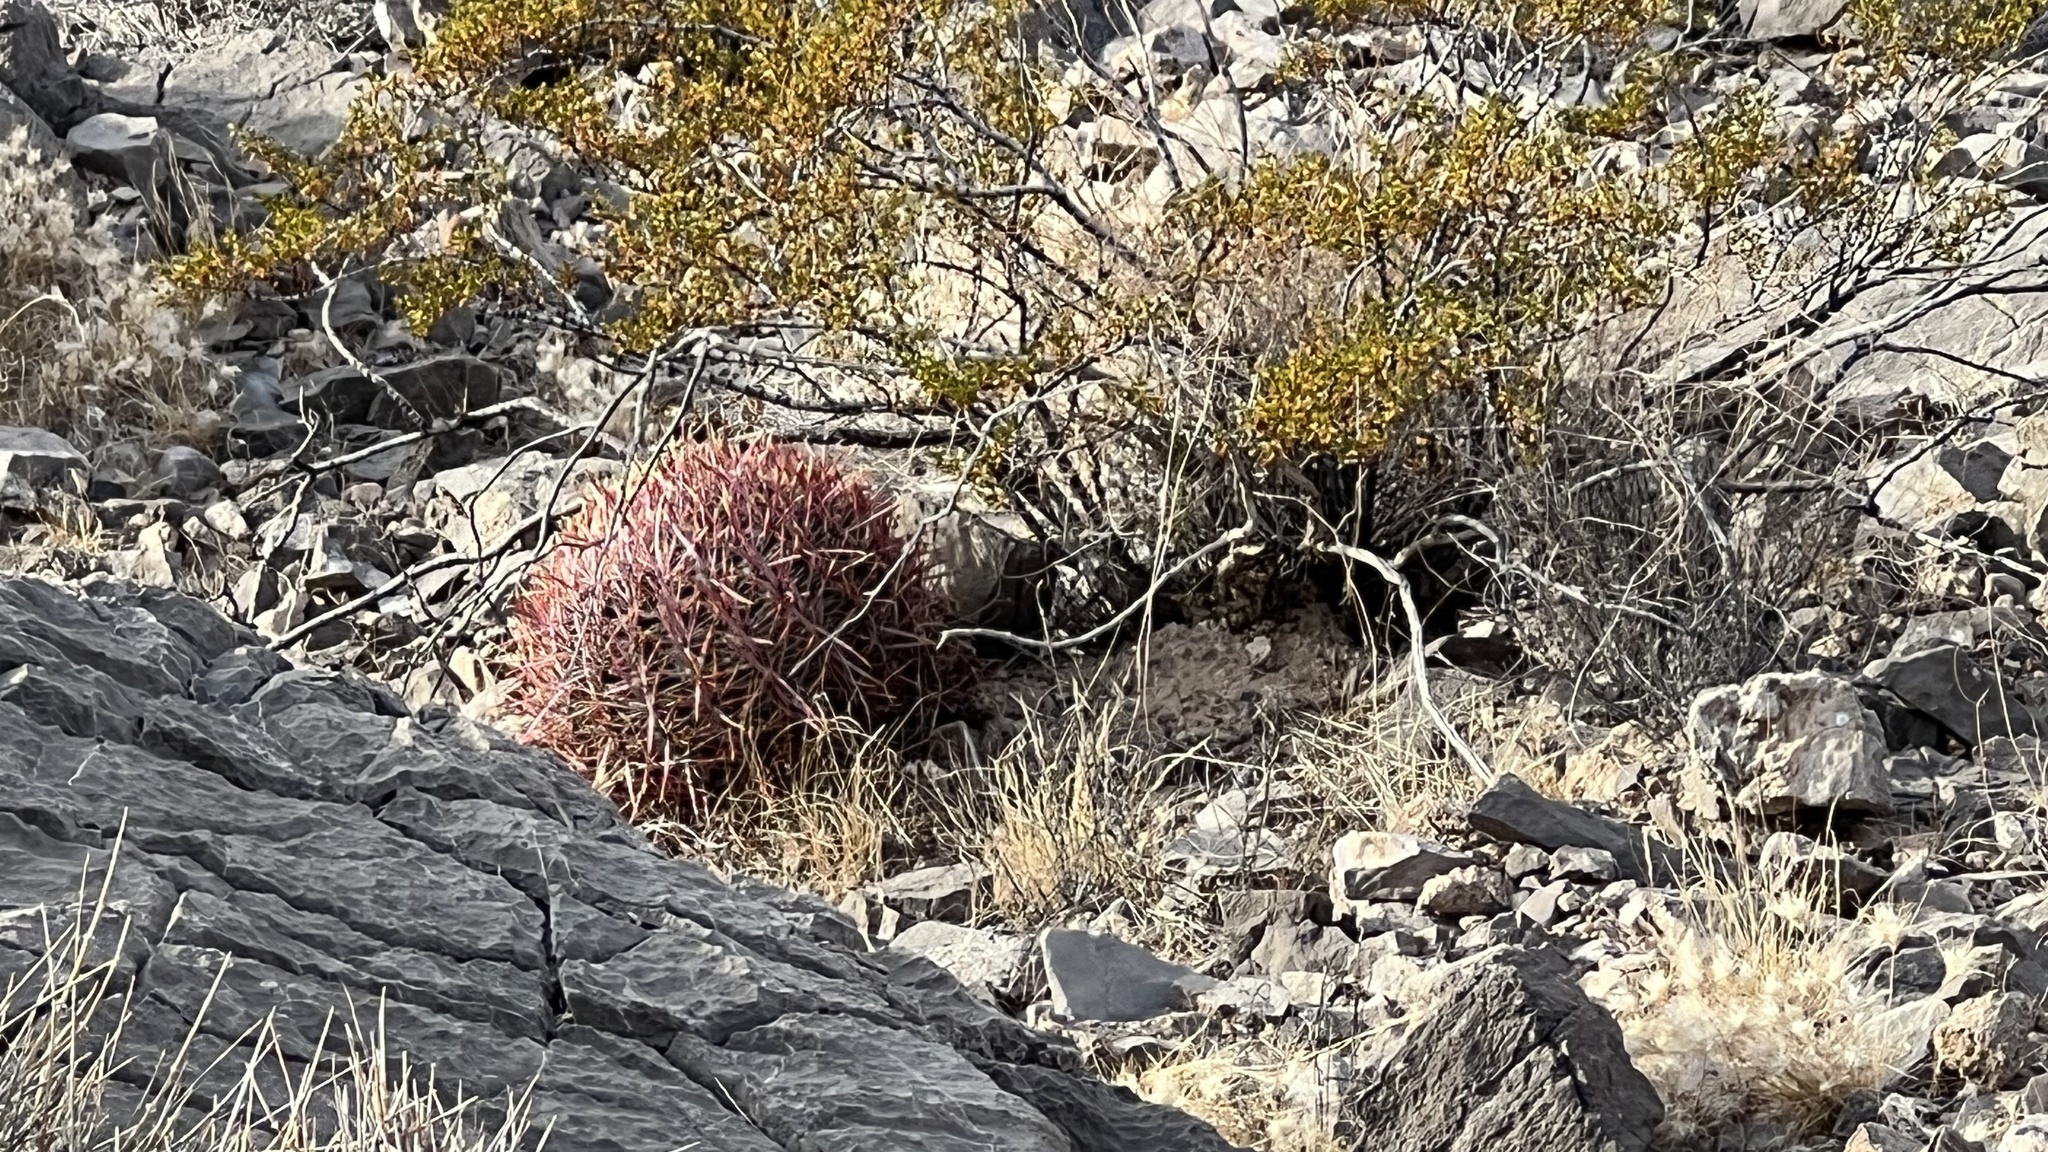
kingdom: Plantae
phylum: Tracheophyta
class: Magnoliopsida
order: Caryophyllales
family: Cactaceae
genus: Ferocactus
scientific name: Ferocactus cylindraceus
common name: California barrel cactus
